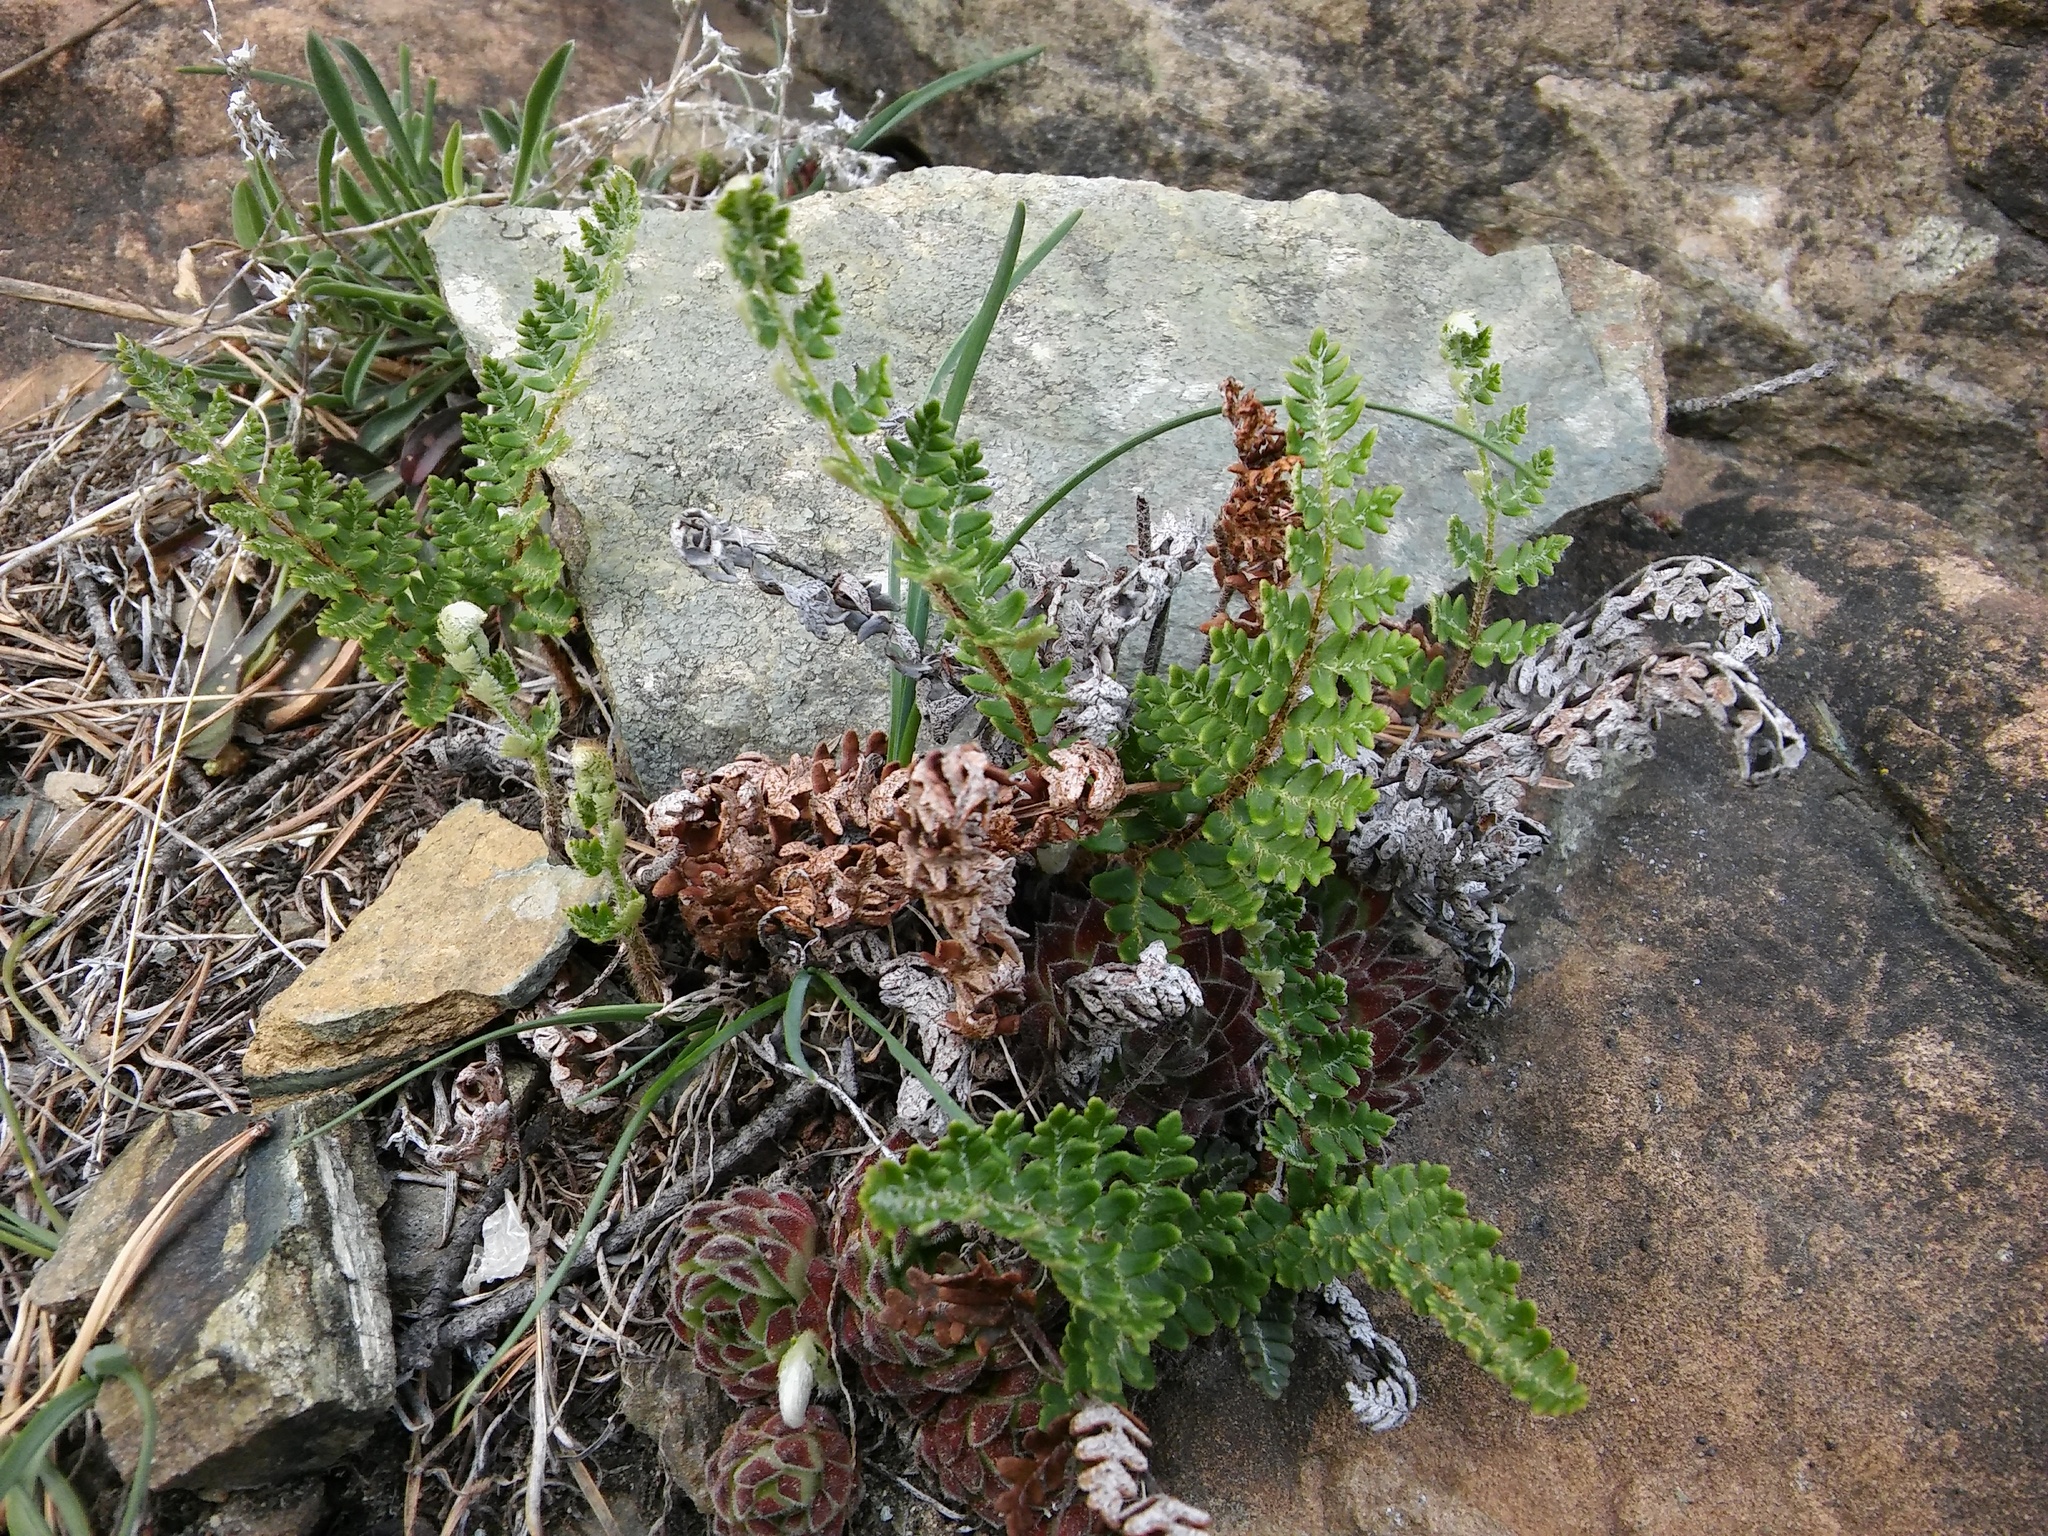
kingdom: Plantae
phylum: Tracheophyta
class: Magnoliopsida
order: Saxifragales
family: Crassulaceae
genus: Sempervivum
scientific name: Sempervivum pittonii
